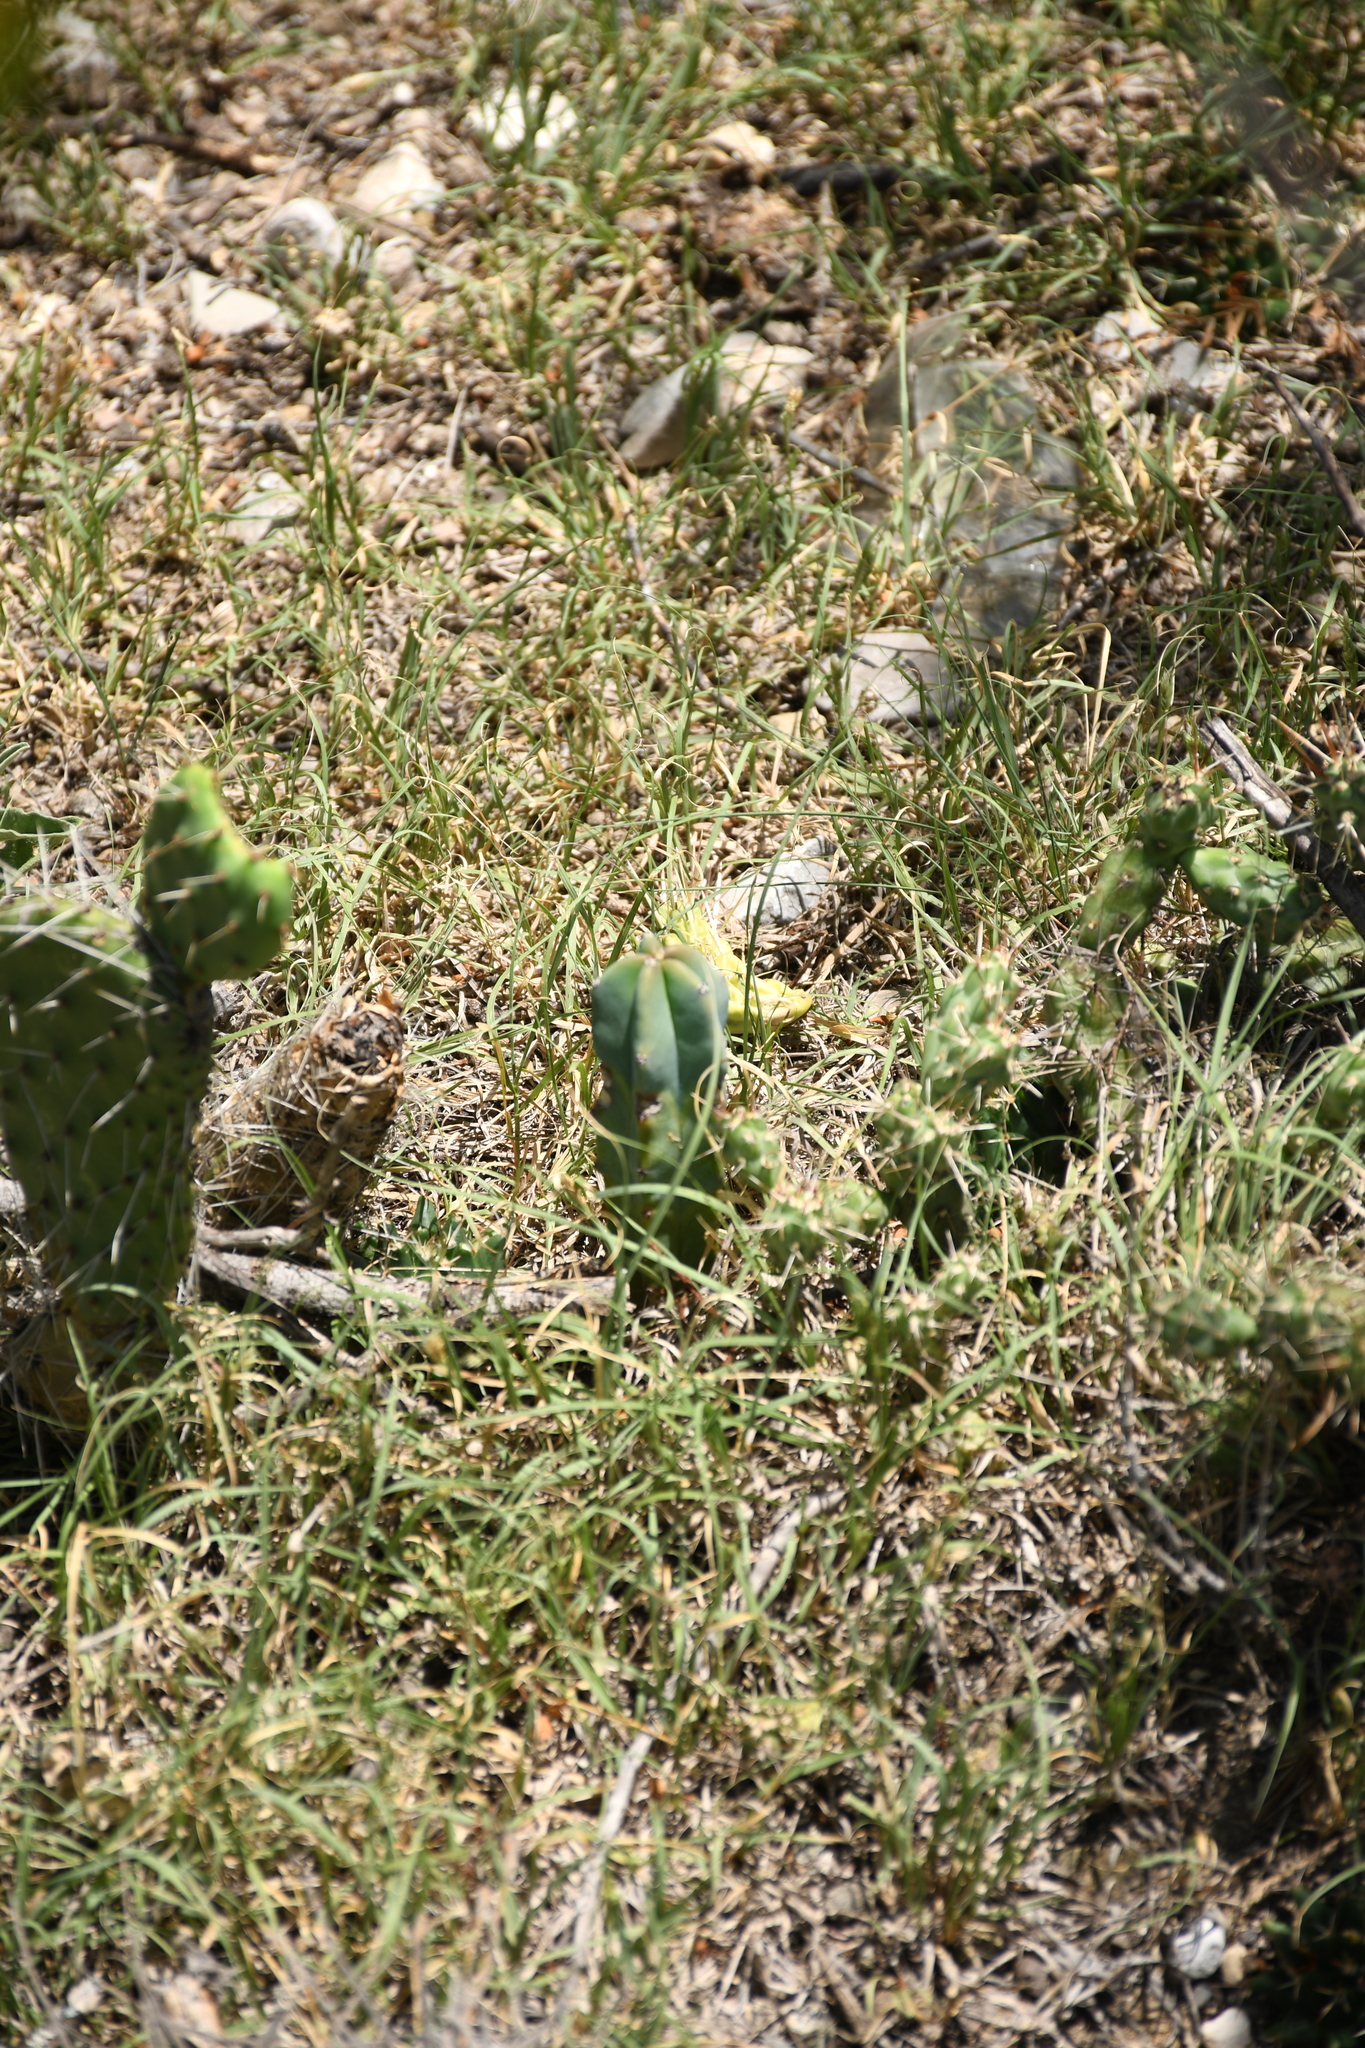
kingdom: Plantae
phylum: Tracheophyta
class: Magnoliopsida
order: Caryophyllales
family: Cactaceae
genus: Myrtillocactus
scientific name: Myrtillocactus geometrizans
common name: Bilberry cactus
